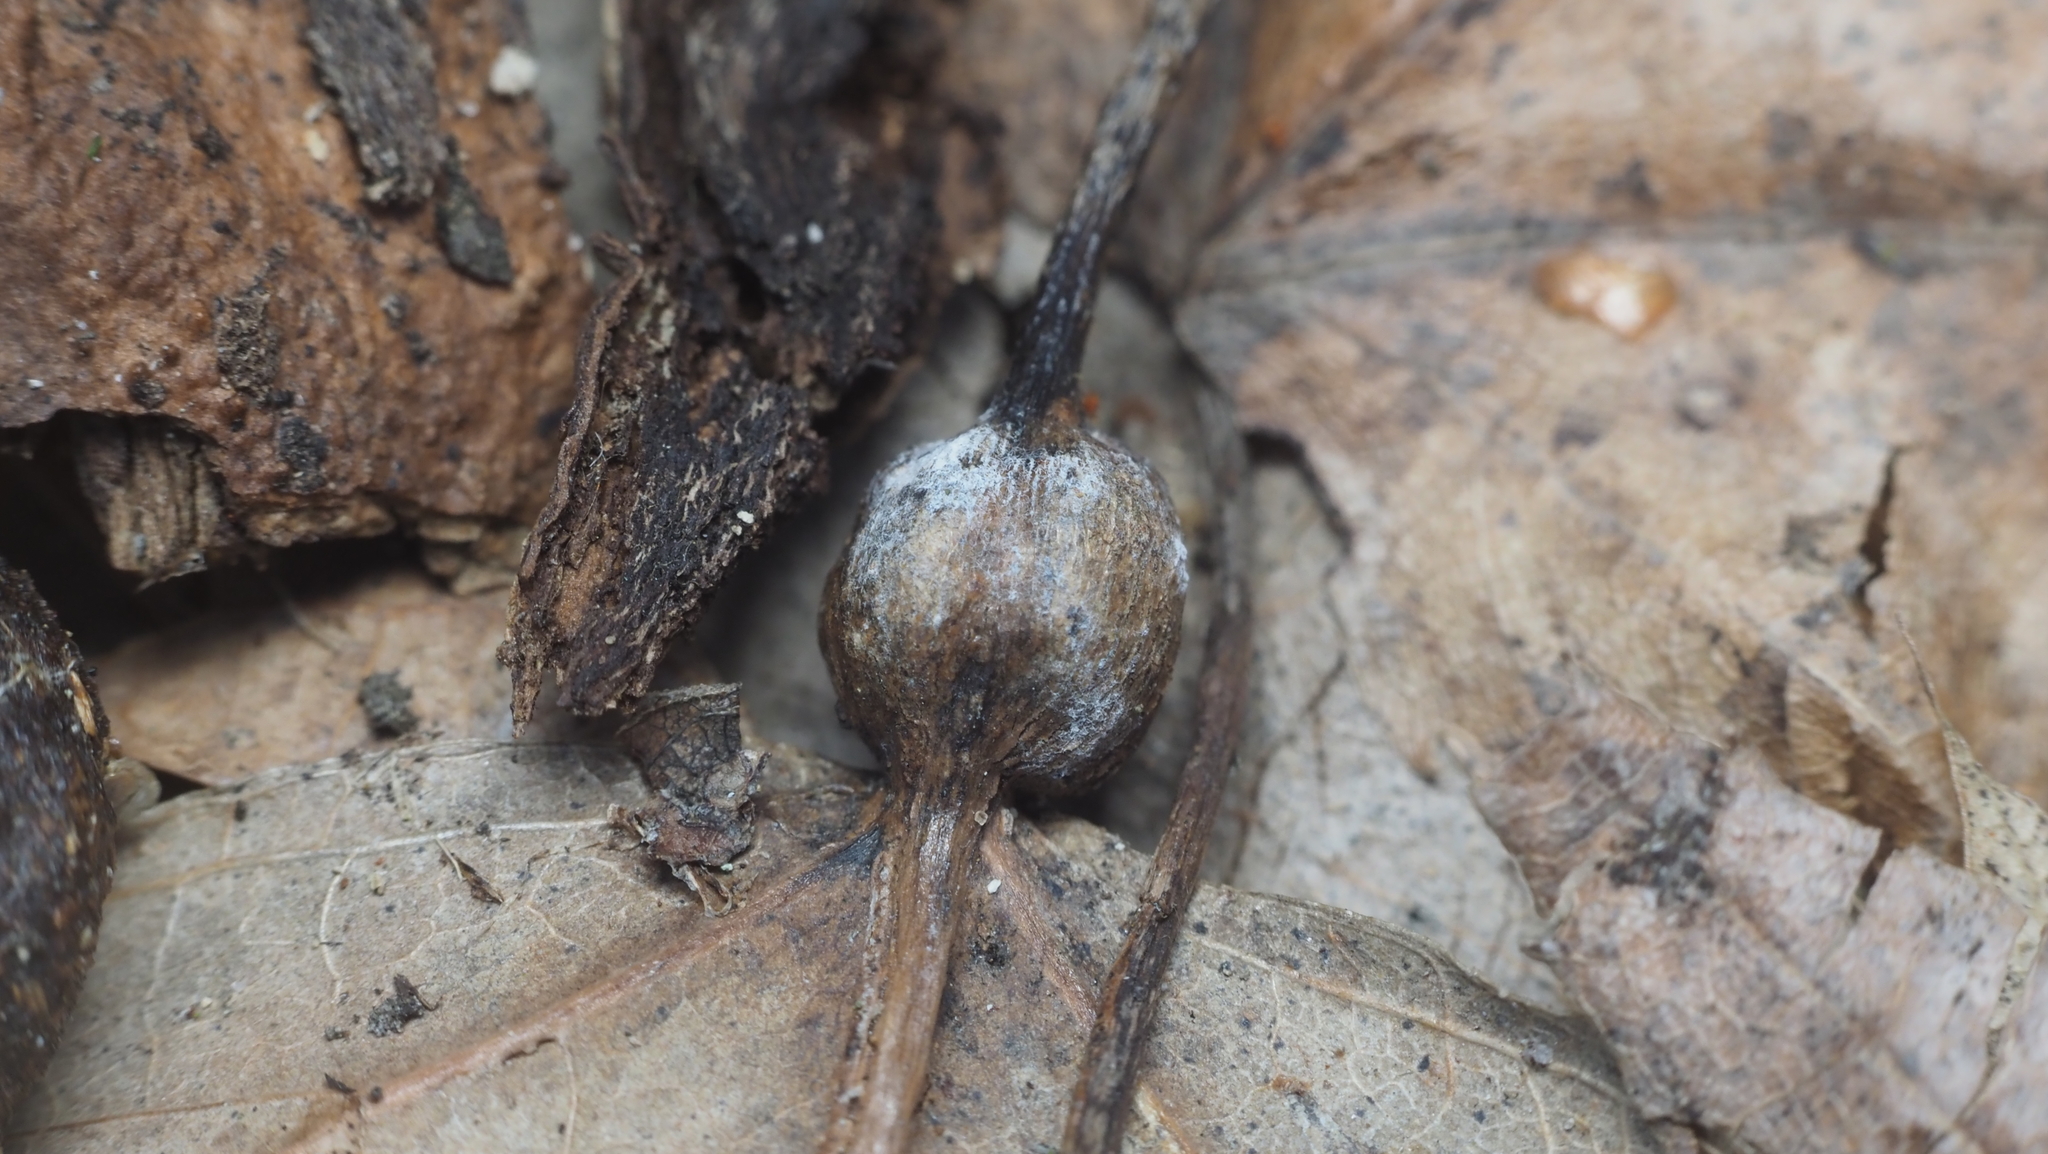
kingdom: Animalia
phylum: Arthropoda
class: Insecta
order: Lepidoptera
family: Nepticulidae
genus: Ectoedemia
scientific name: Ectoedemia populella
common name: Aspen petiole gall moth
